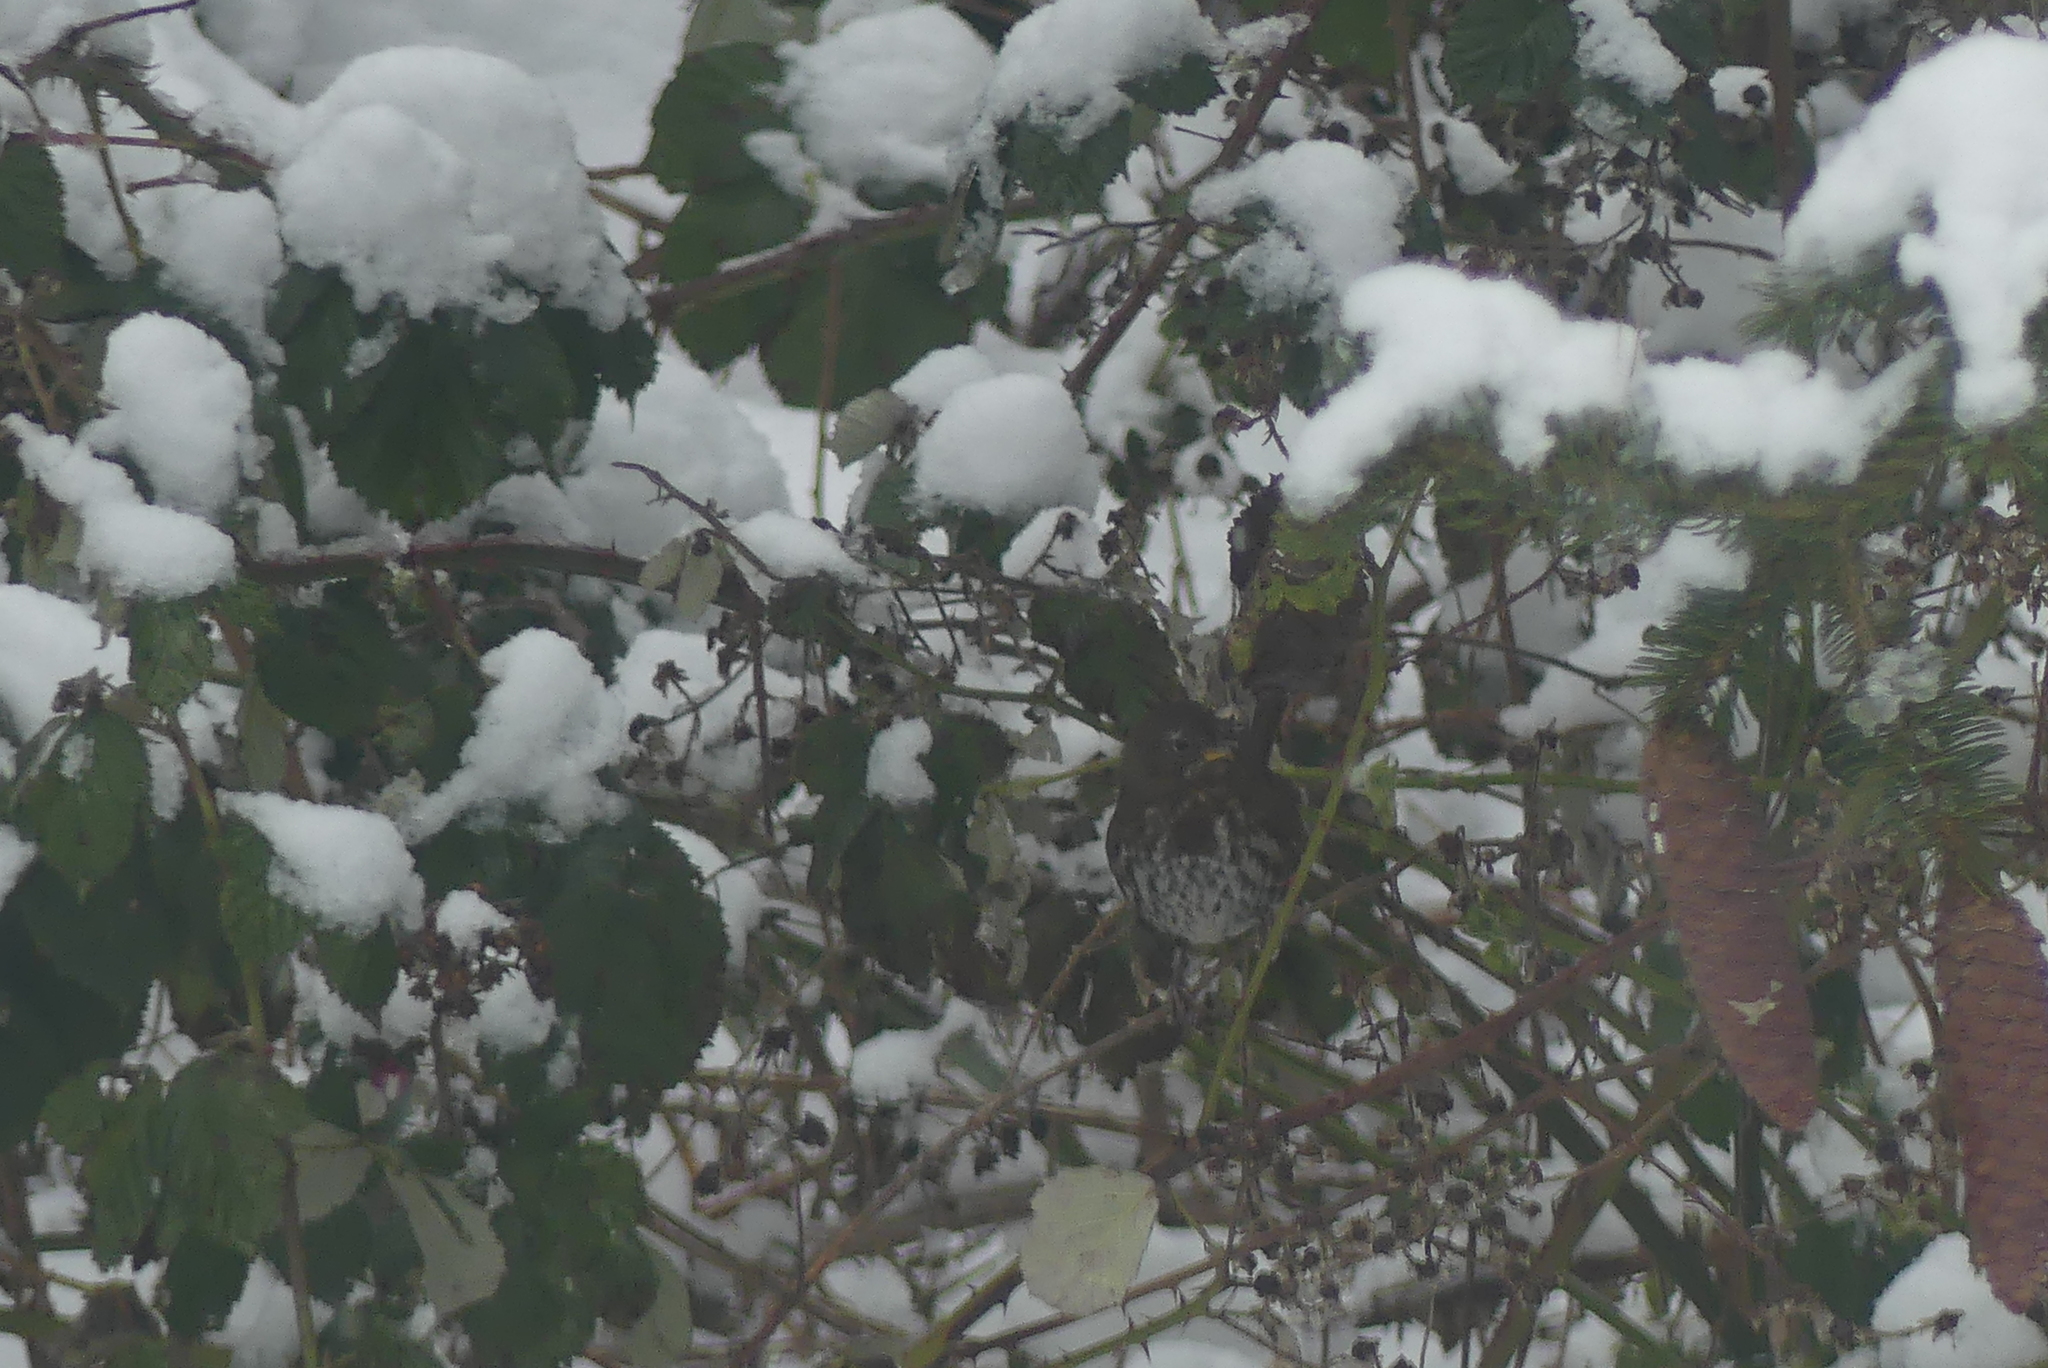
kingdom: Animalia
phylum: Chordata
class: Aves
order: Passeriformes
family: Passerellidae
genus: Passerella
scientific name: Passerella iliaca
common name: Fox sparrow
